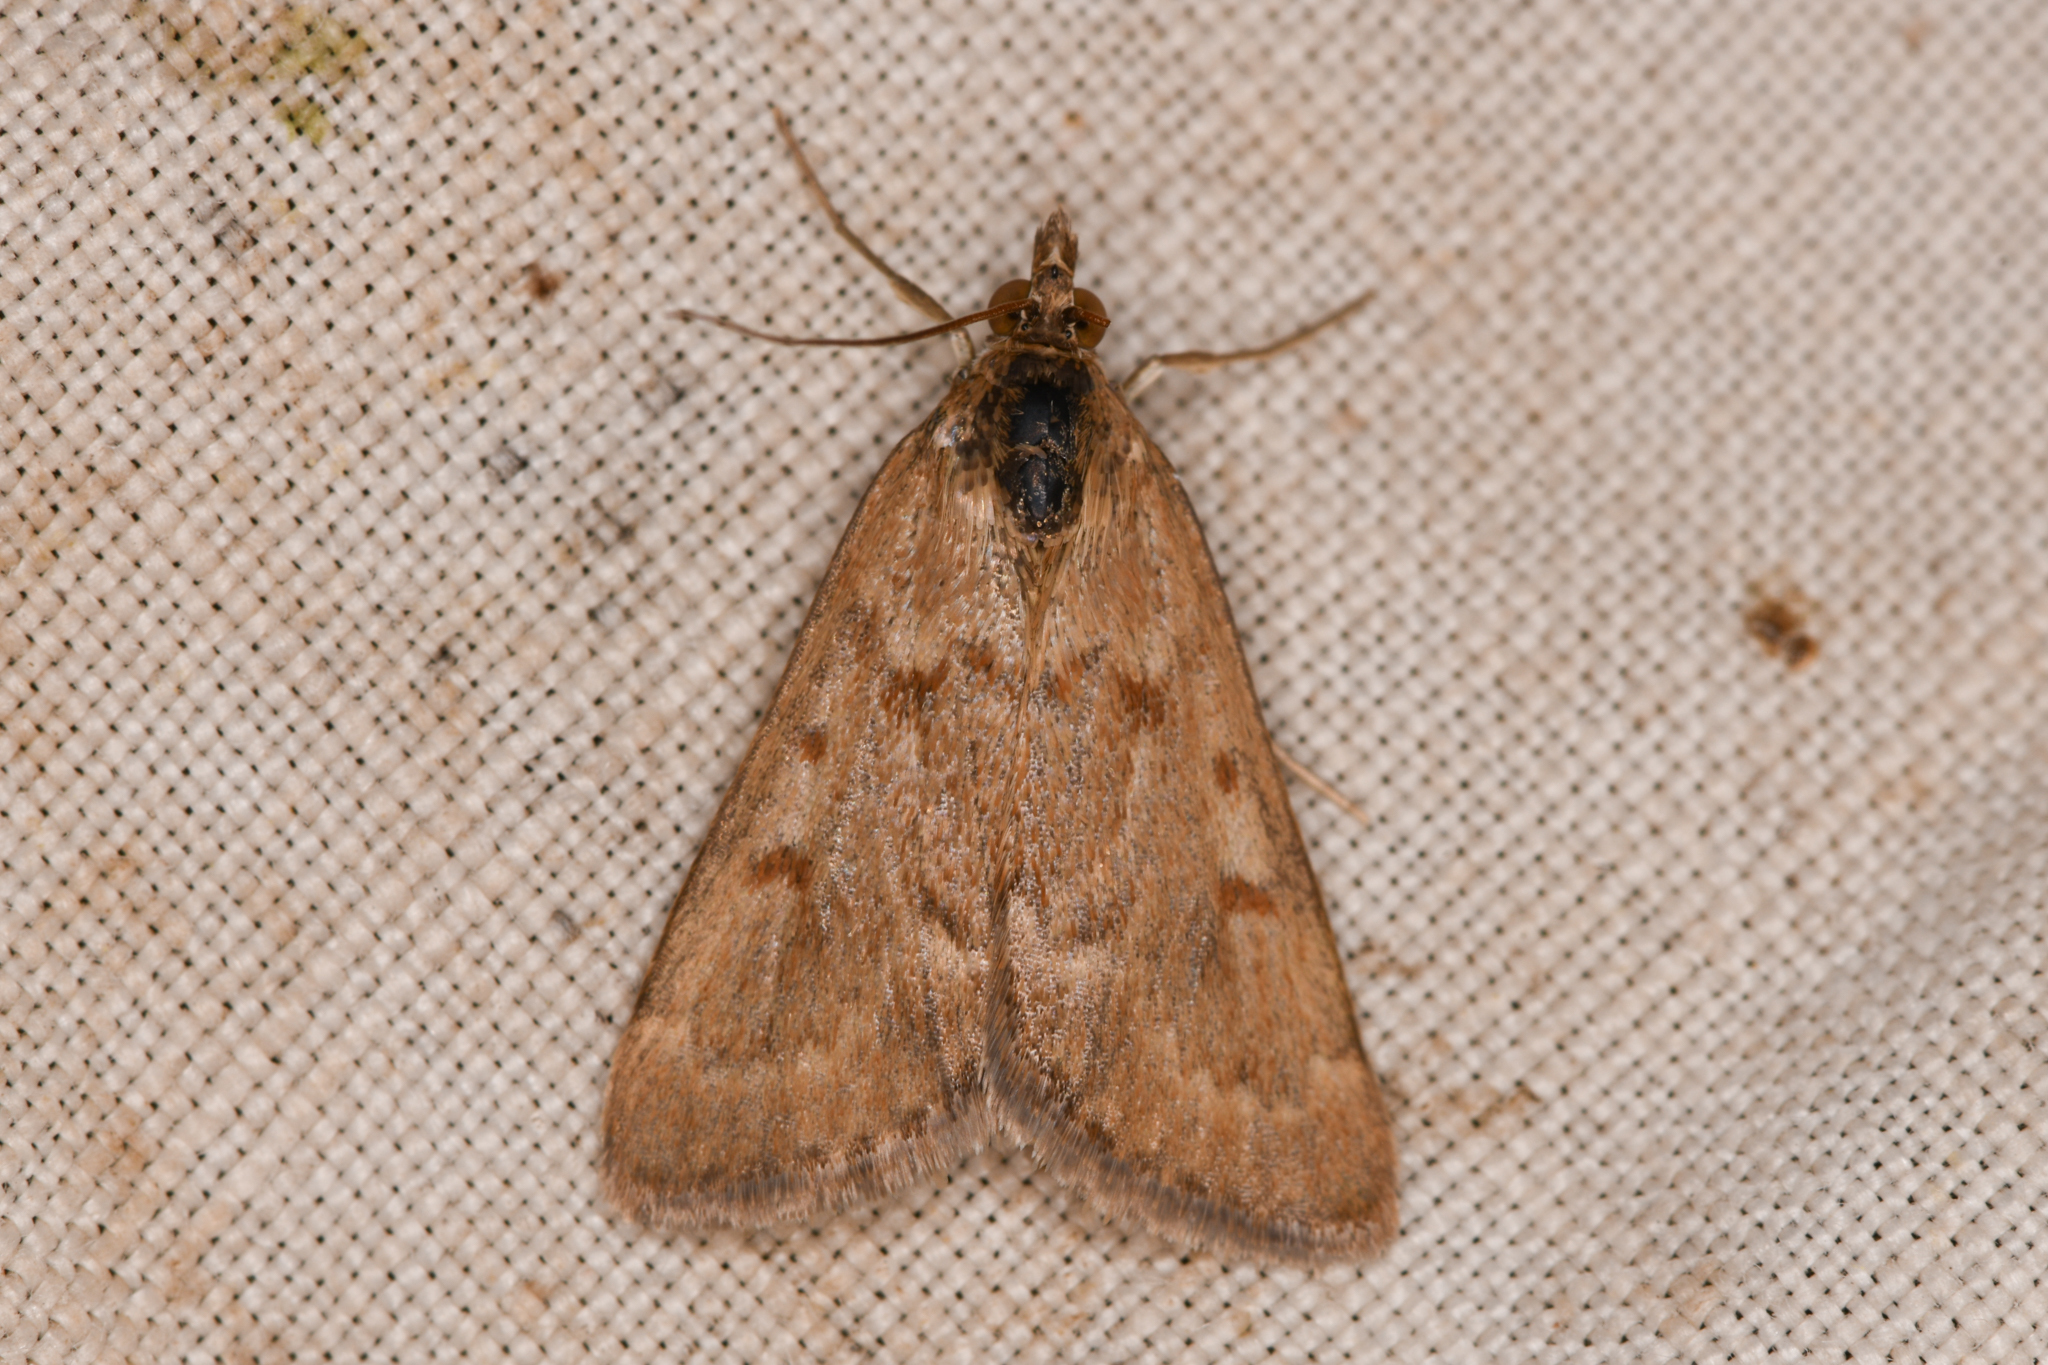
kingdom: Animalia
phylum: Arthropoda
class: Insecta
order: Lepidoptera
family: Crambidae
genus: Achyra
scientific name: Achyra rantalis
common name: Garden webworm
